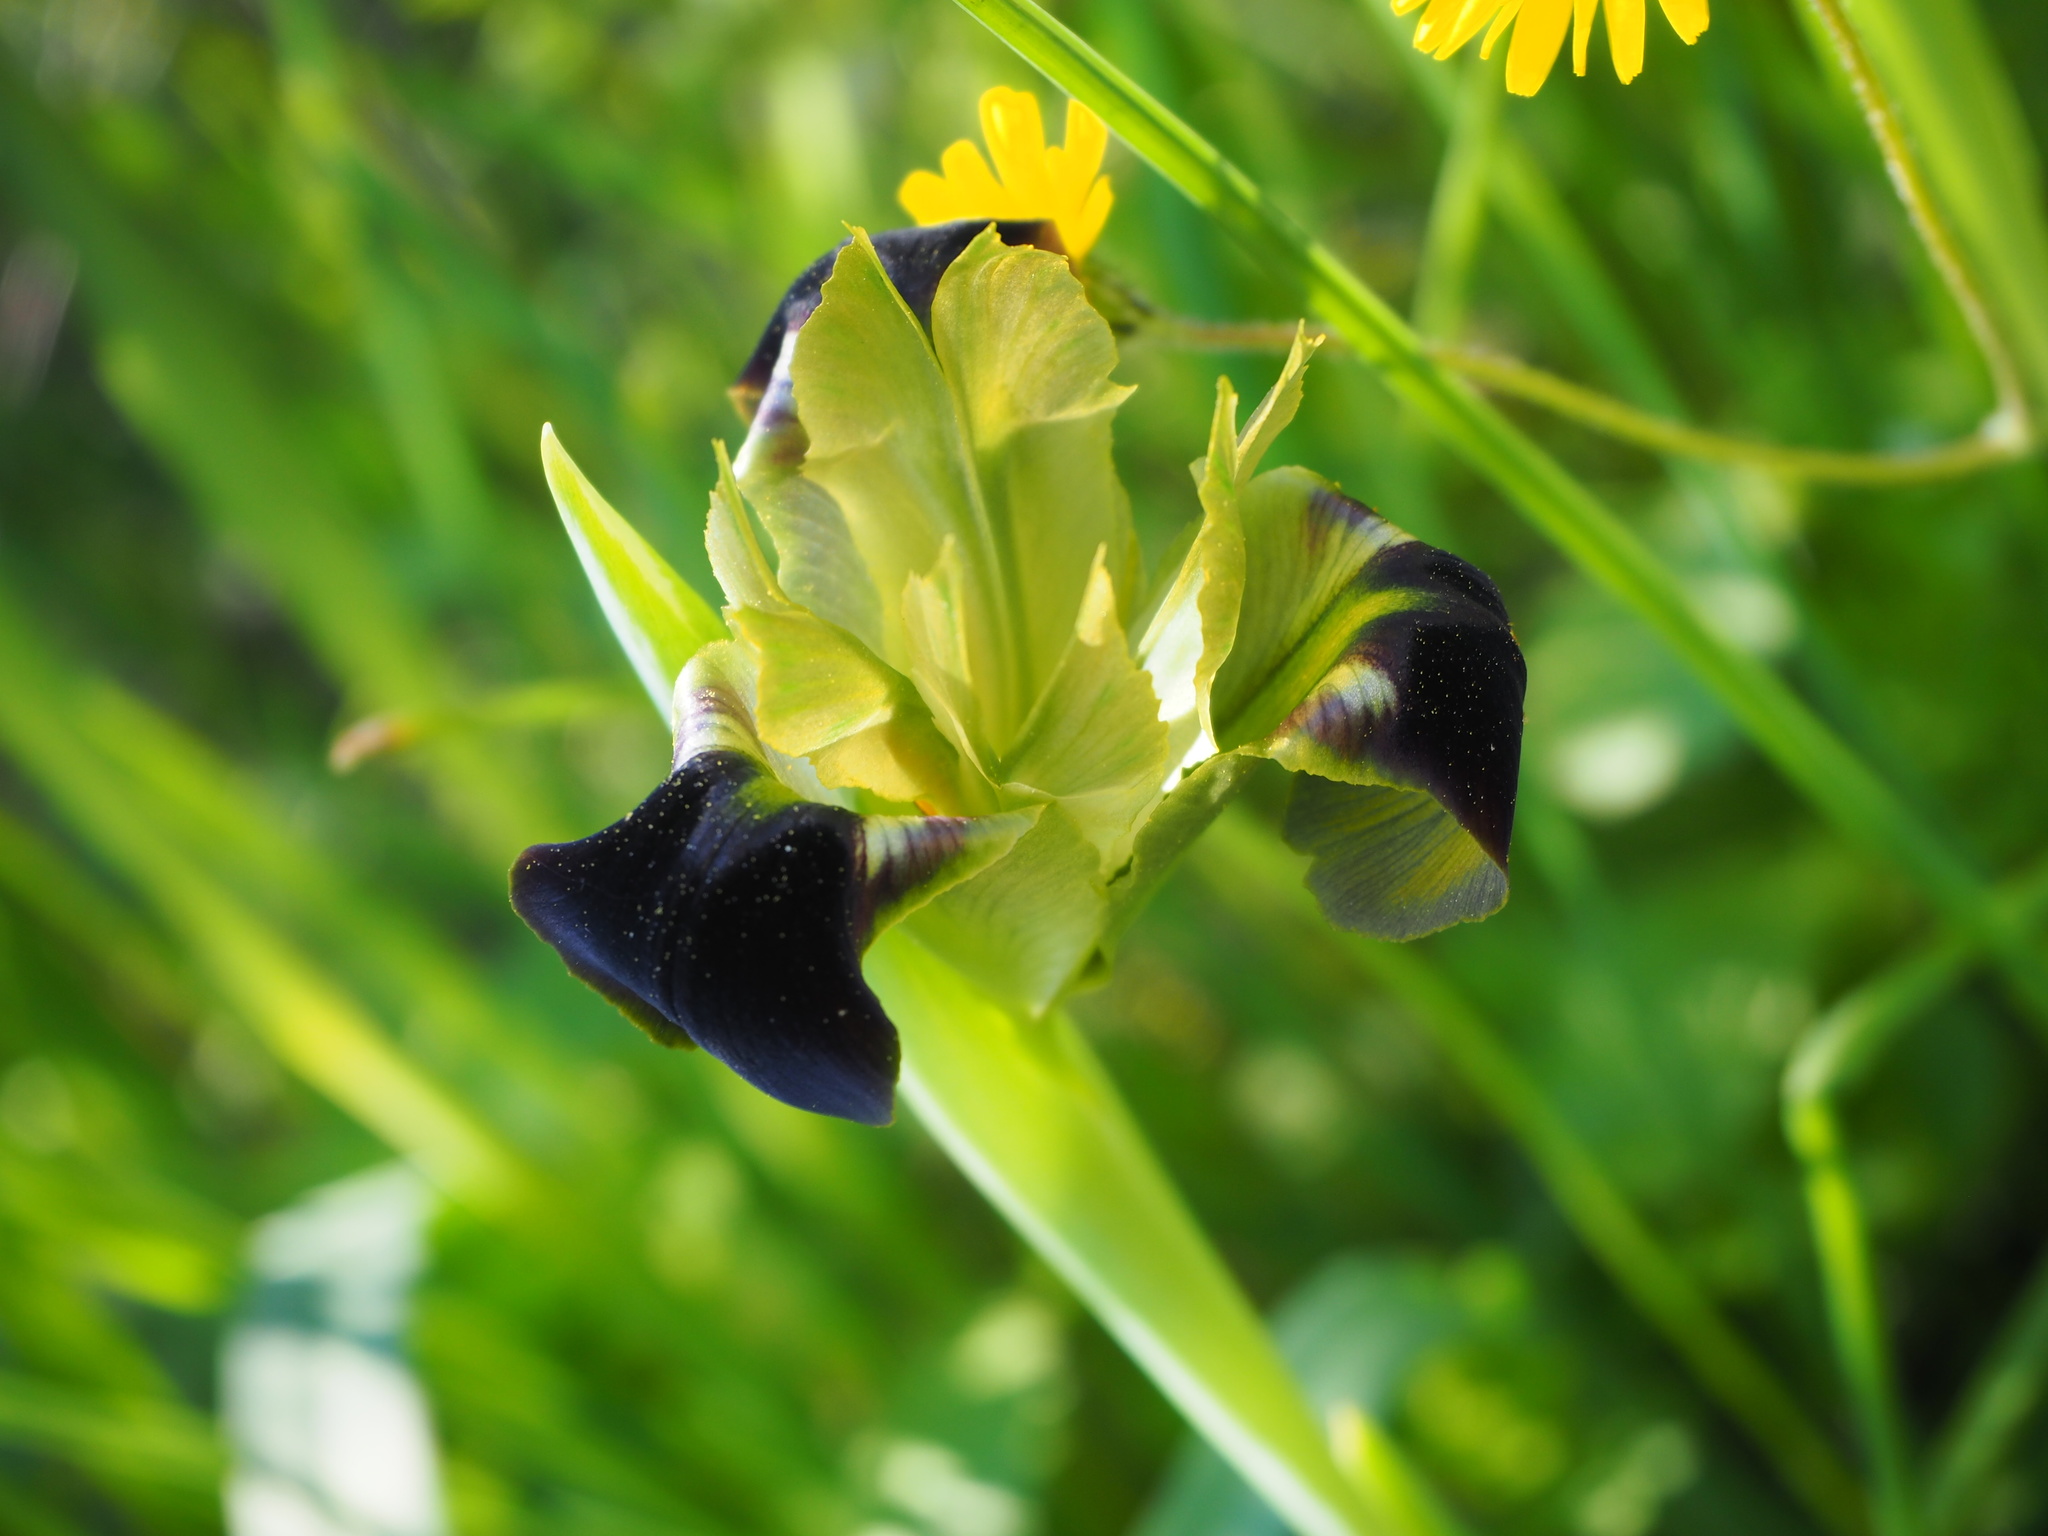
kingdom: Plantae
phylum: Tracheophyta
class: Liliopsida
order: Asparagales
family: Iridaceae
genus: Iris
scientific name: Iris tuberosa
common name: Snake's-head iris
